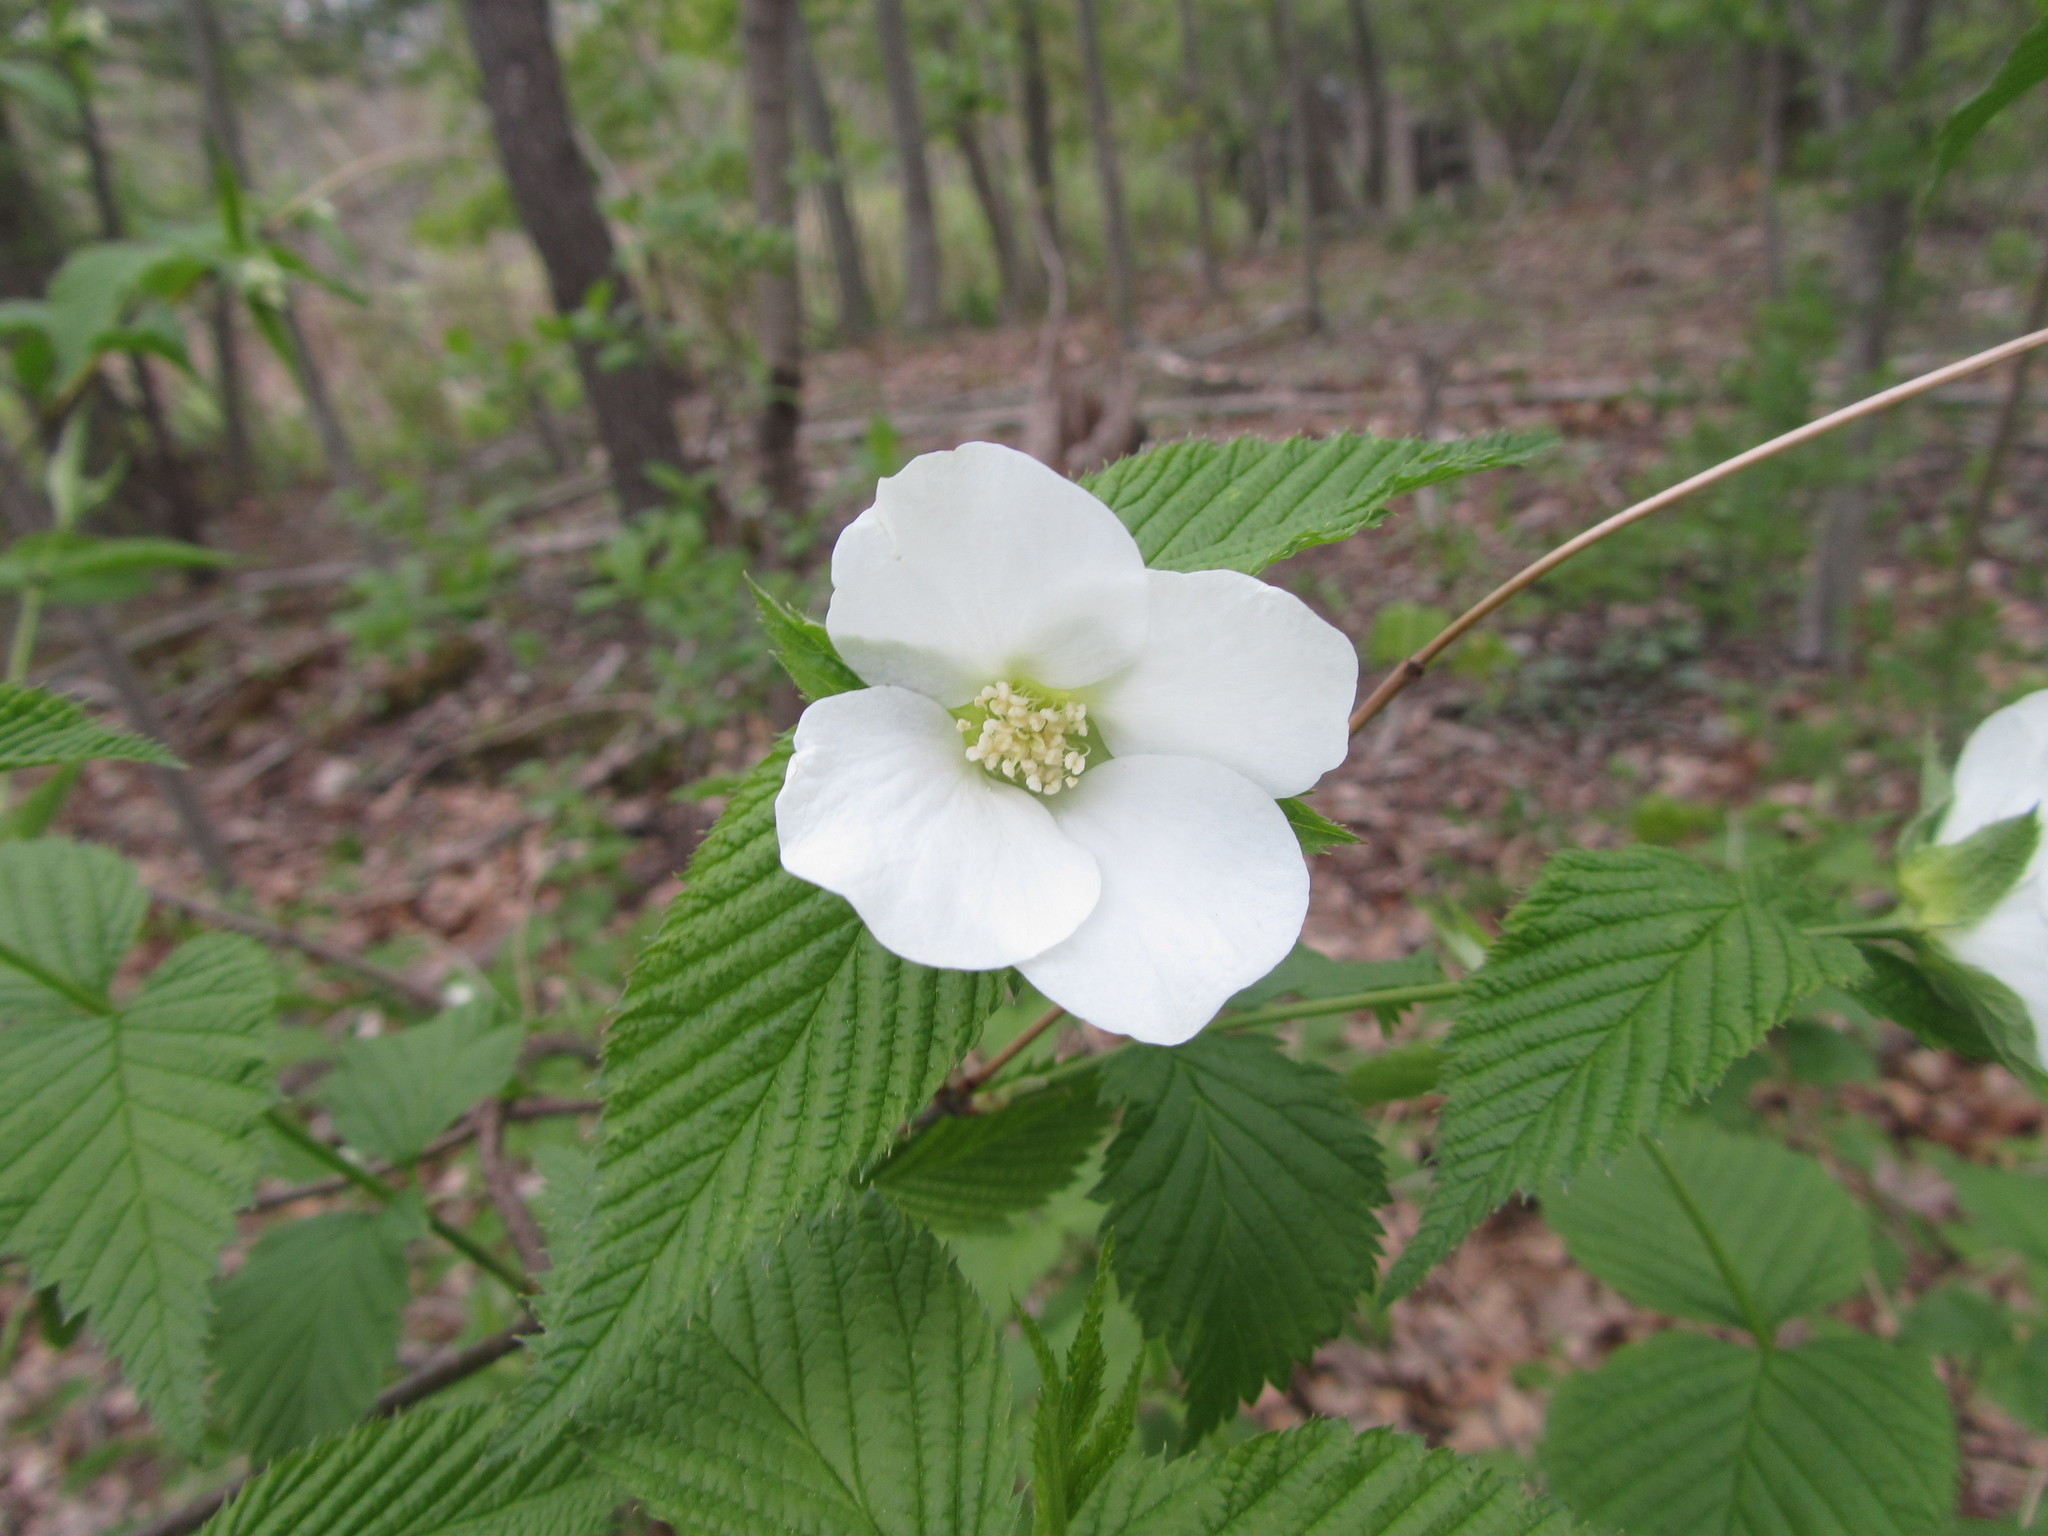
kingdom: Plantae
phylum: Tracheophyta
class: Magnoliopsida
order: Rosales
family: Rosaceae
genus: Rhodotypos
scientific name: Rhodotypos scandens
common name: Jetbead
